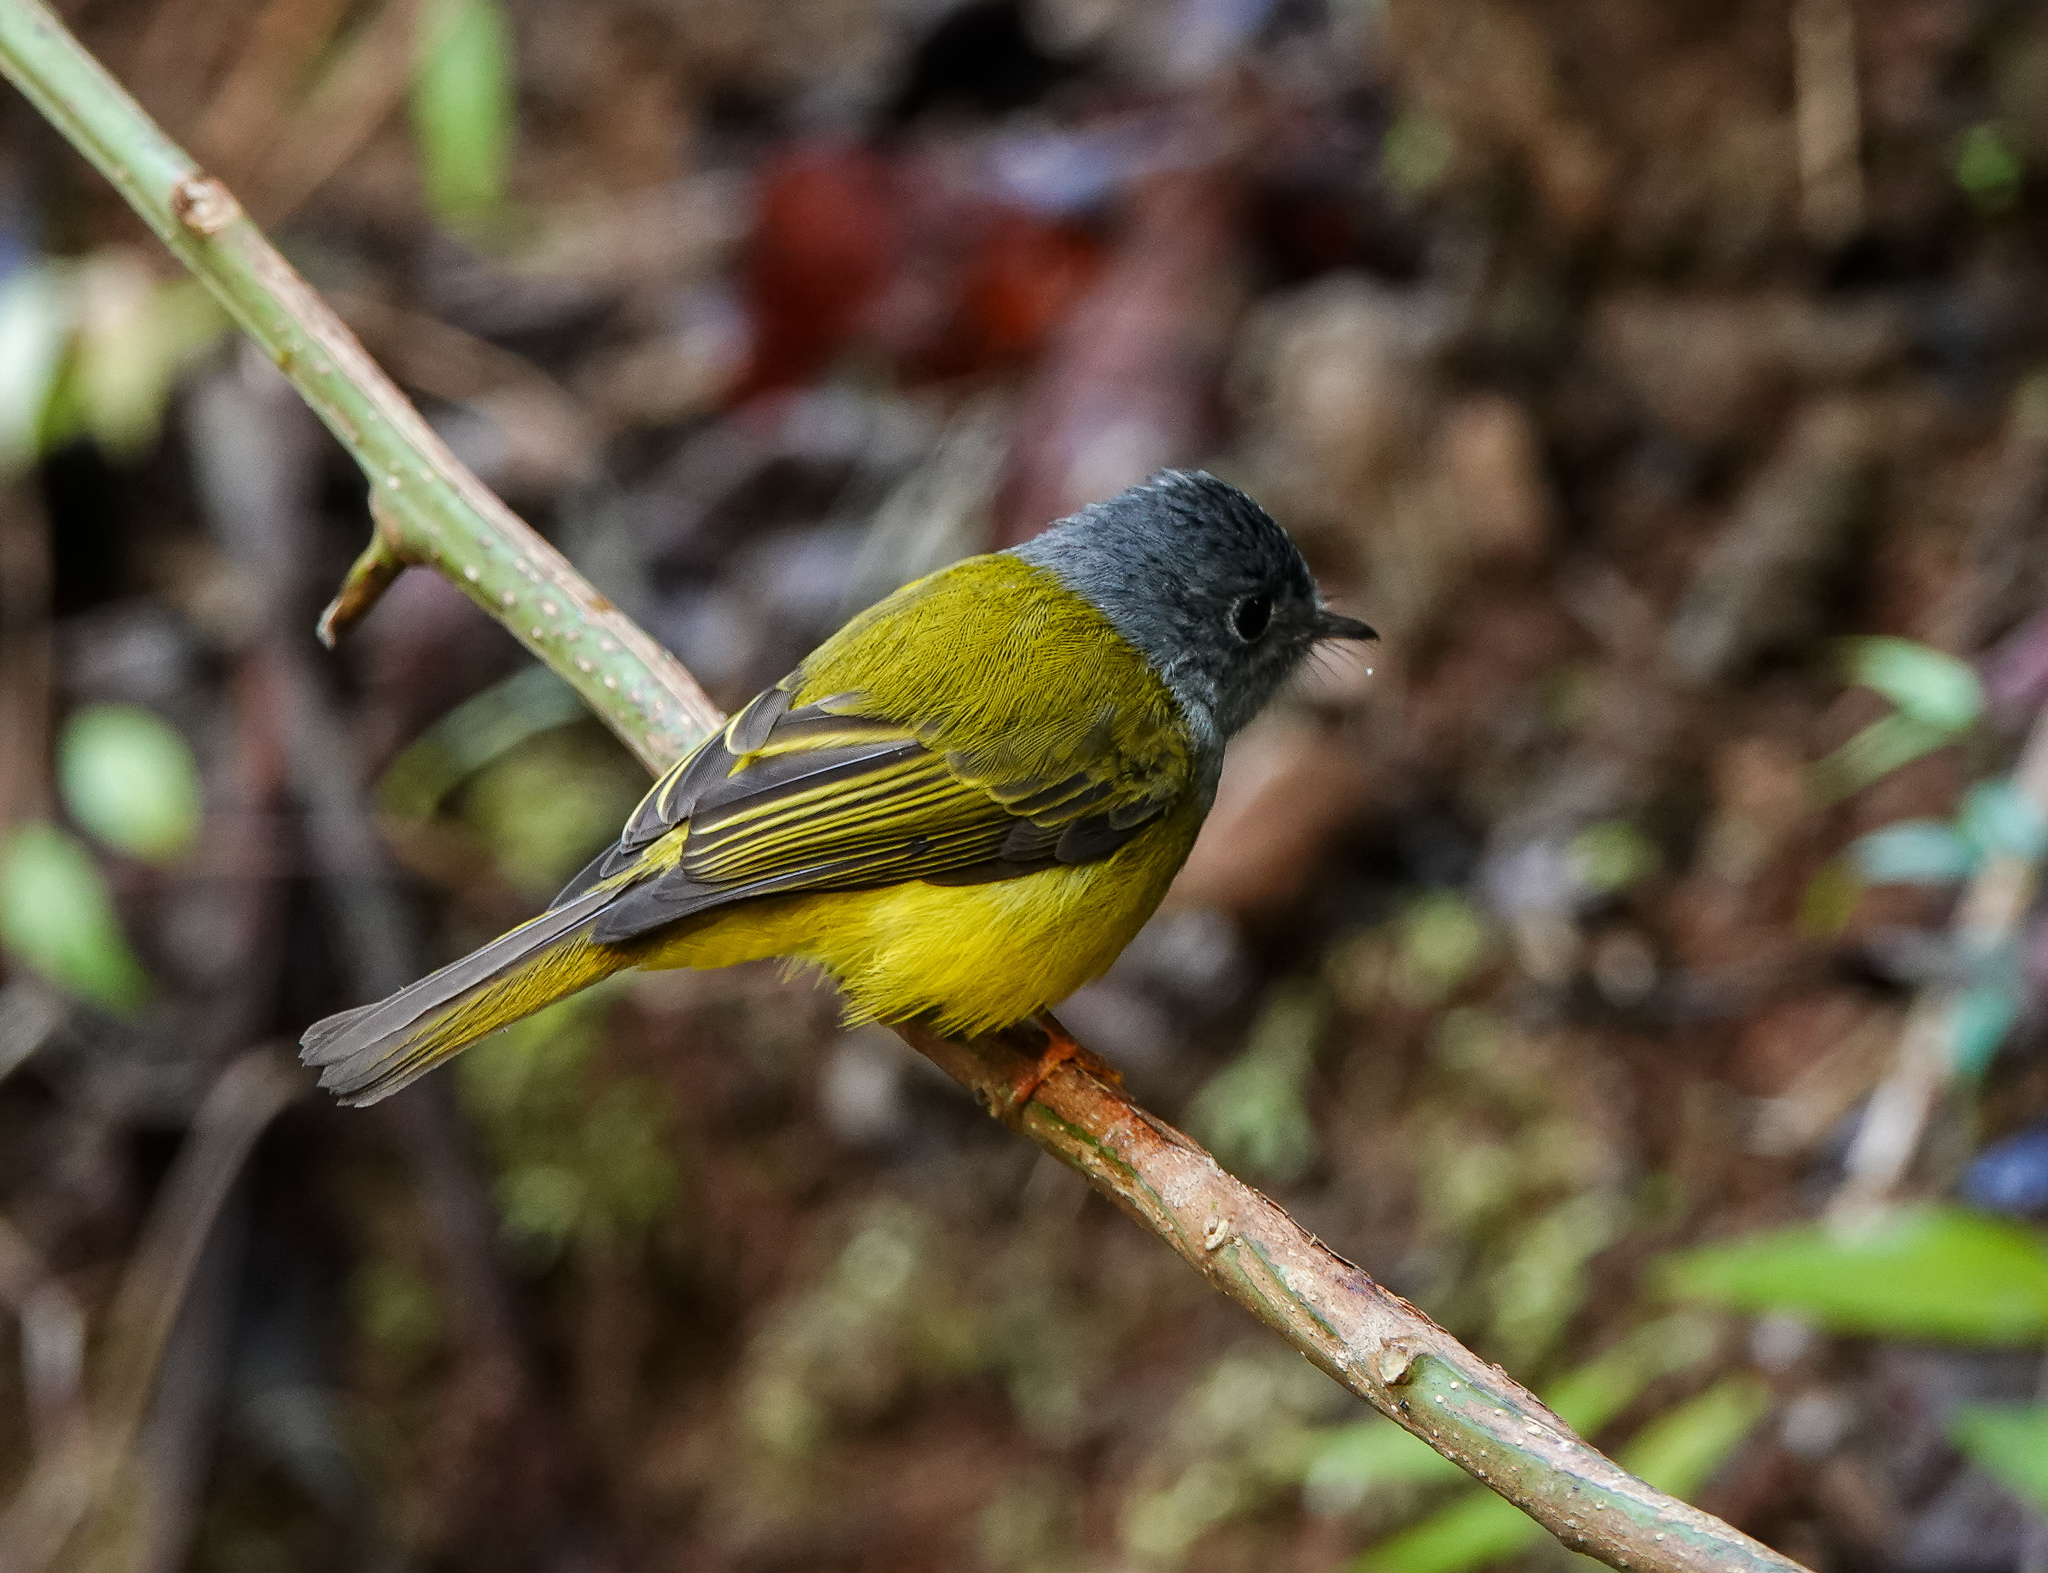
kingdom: Animalia
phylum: Chordata
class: Aves
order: Passeriformes
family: Stenostiridae
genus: Culicicapa
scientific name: Culicicapa ceylonensis
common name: Grey-headed canary-flycatcher
